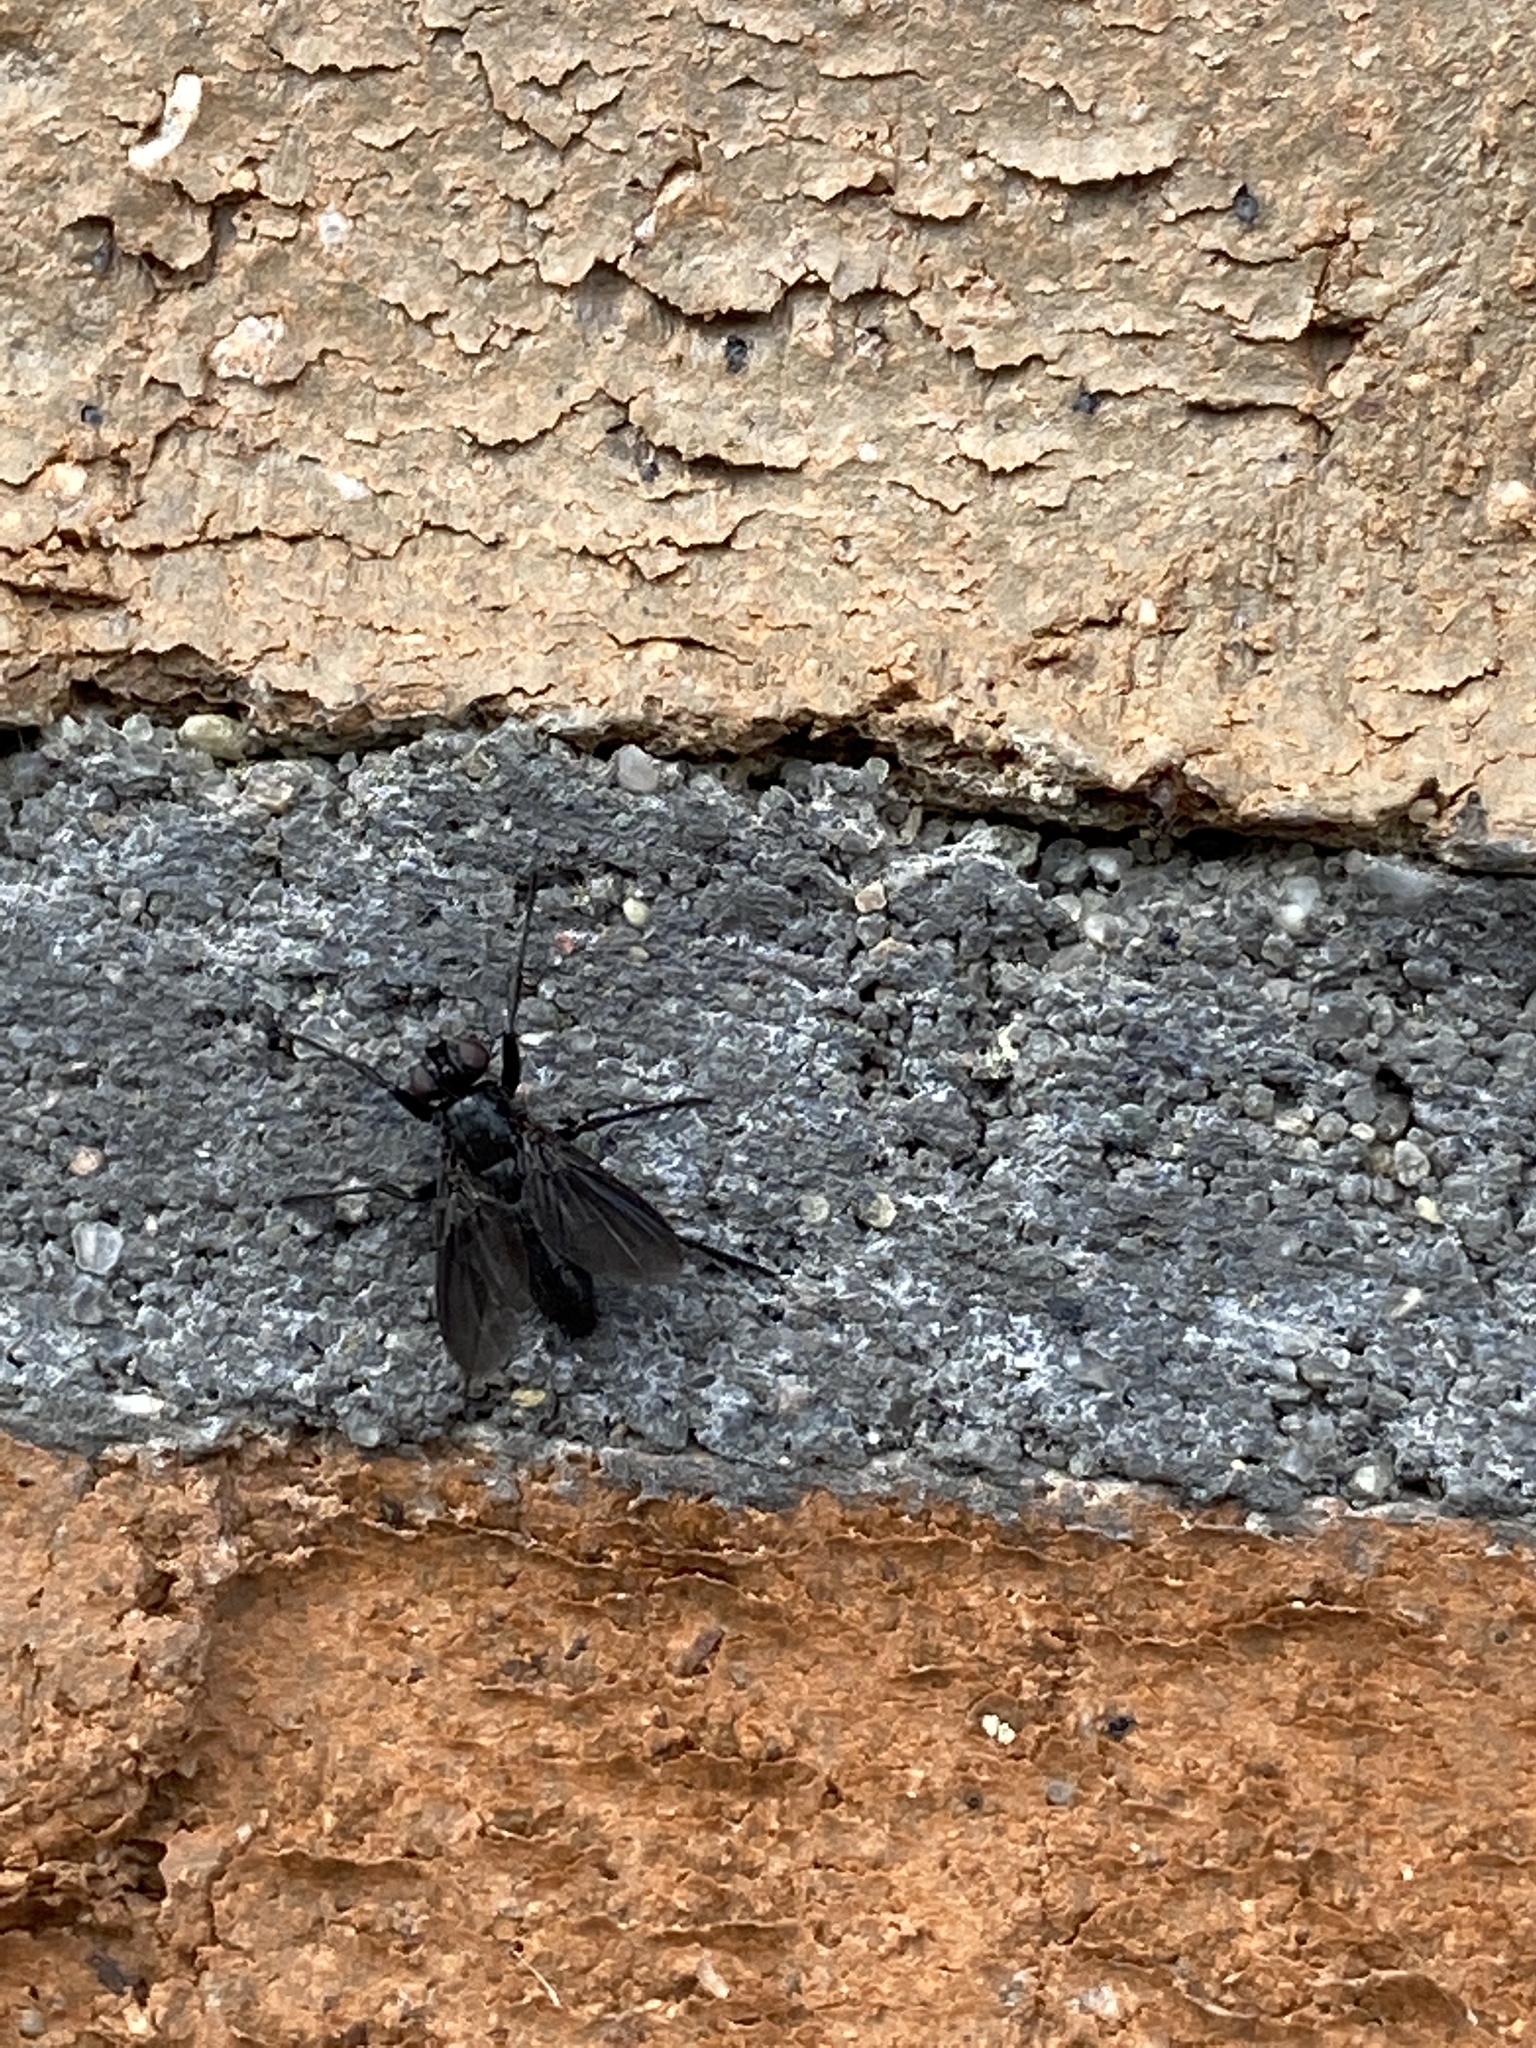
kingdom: Animalia
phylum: Arthropoda
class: Insecta
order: Diptera
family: Calliphoridae
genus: Melanophora
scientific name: Melanophora roralis
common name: Smoky-winged woodlouse-fly
